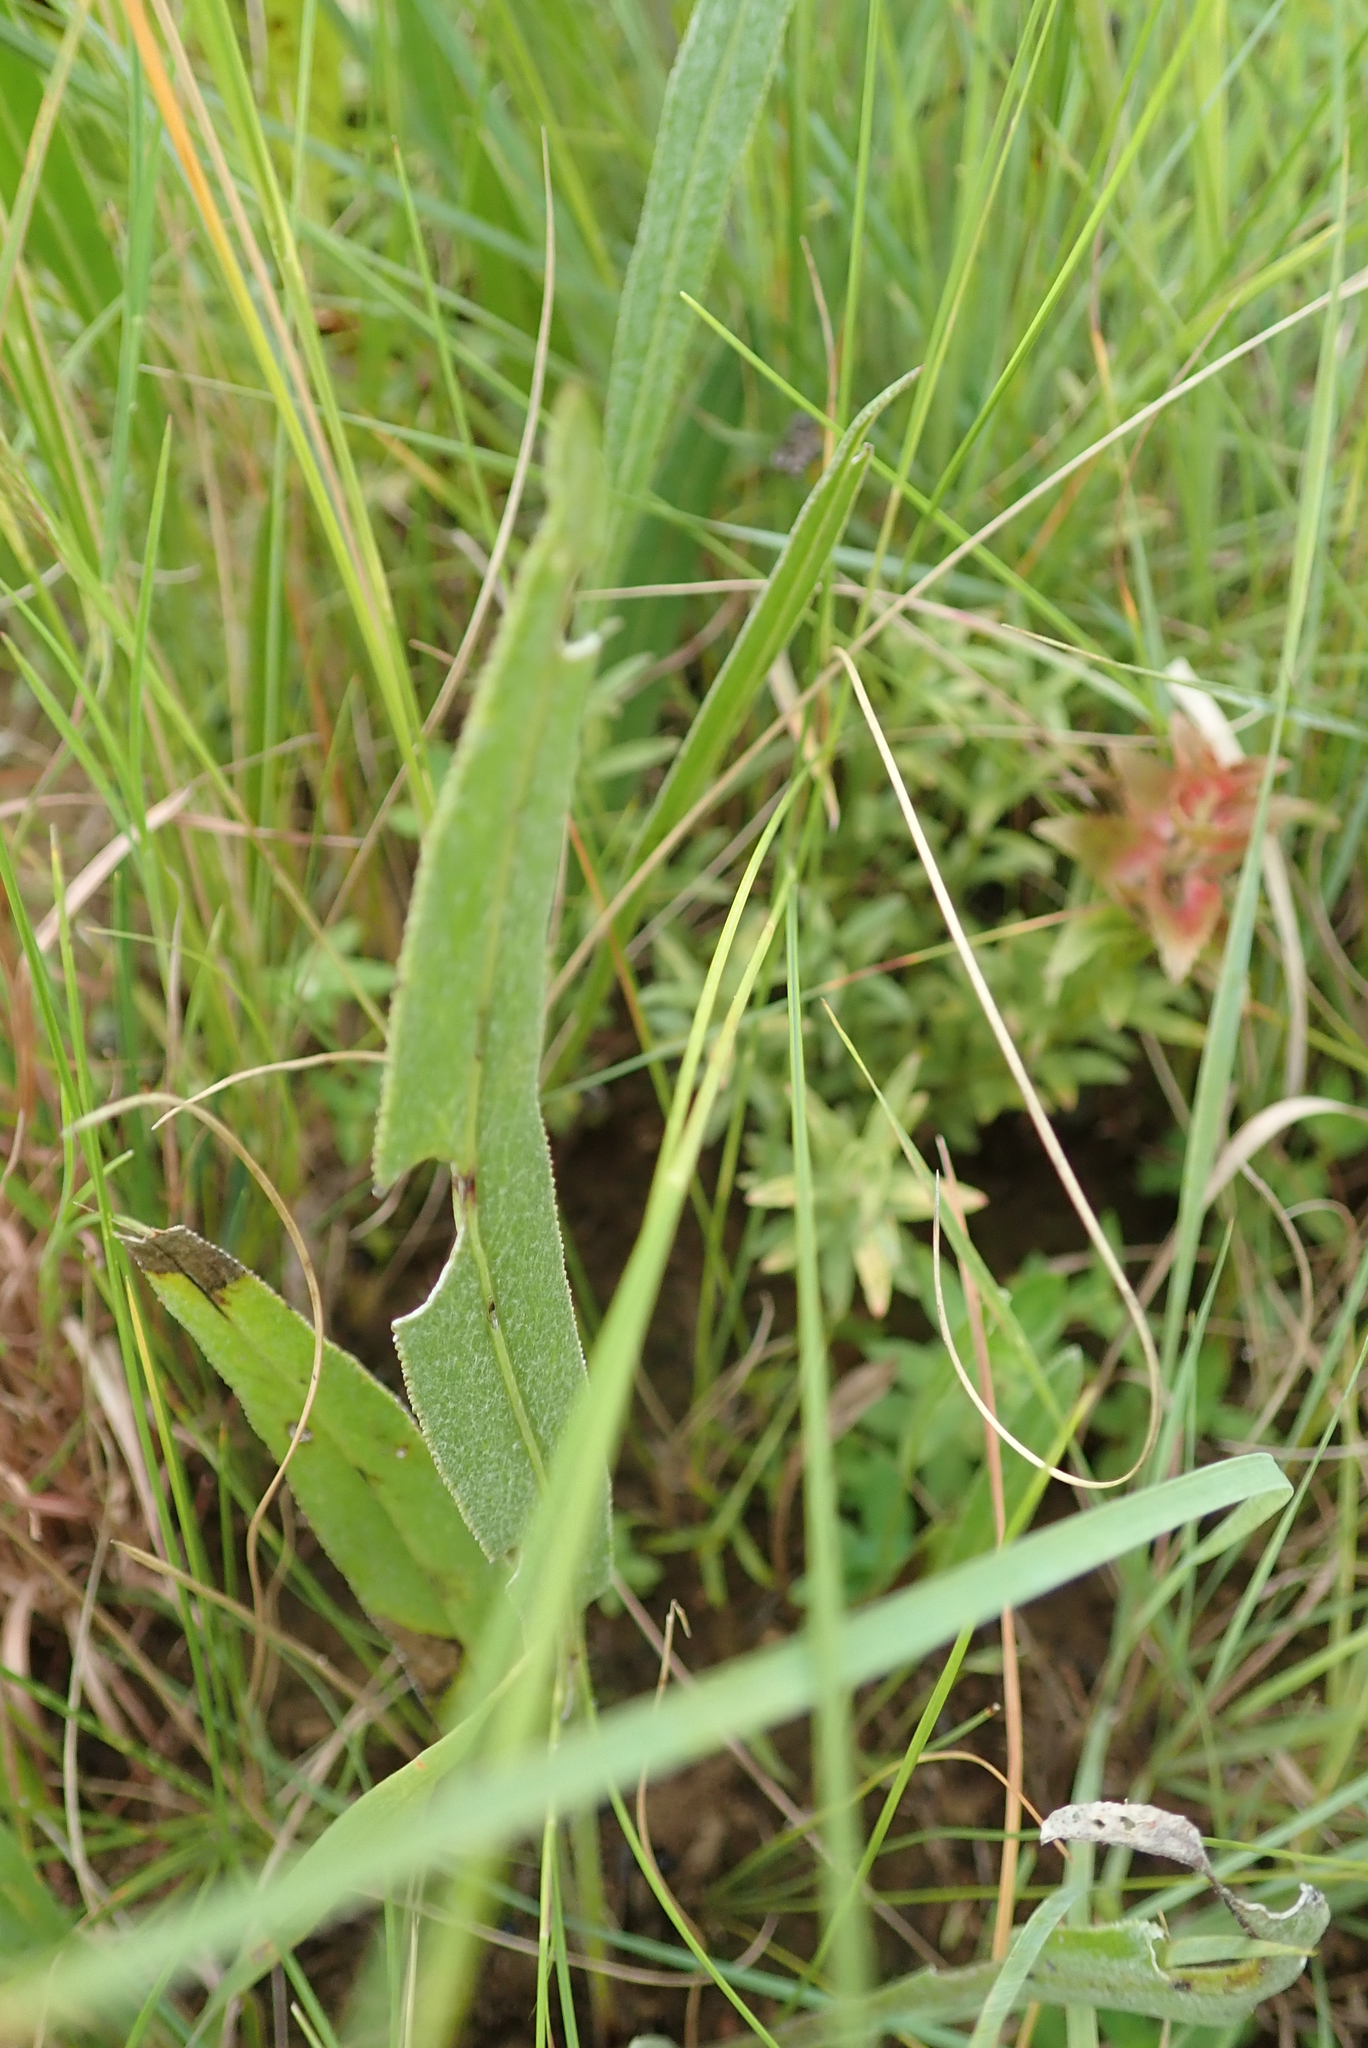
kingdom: Plantae
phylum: Tracheophyta
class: Magnoliopsida
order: Asterales
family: Asteraceae
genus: Senecio
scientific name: Senecio dregeanus
